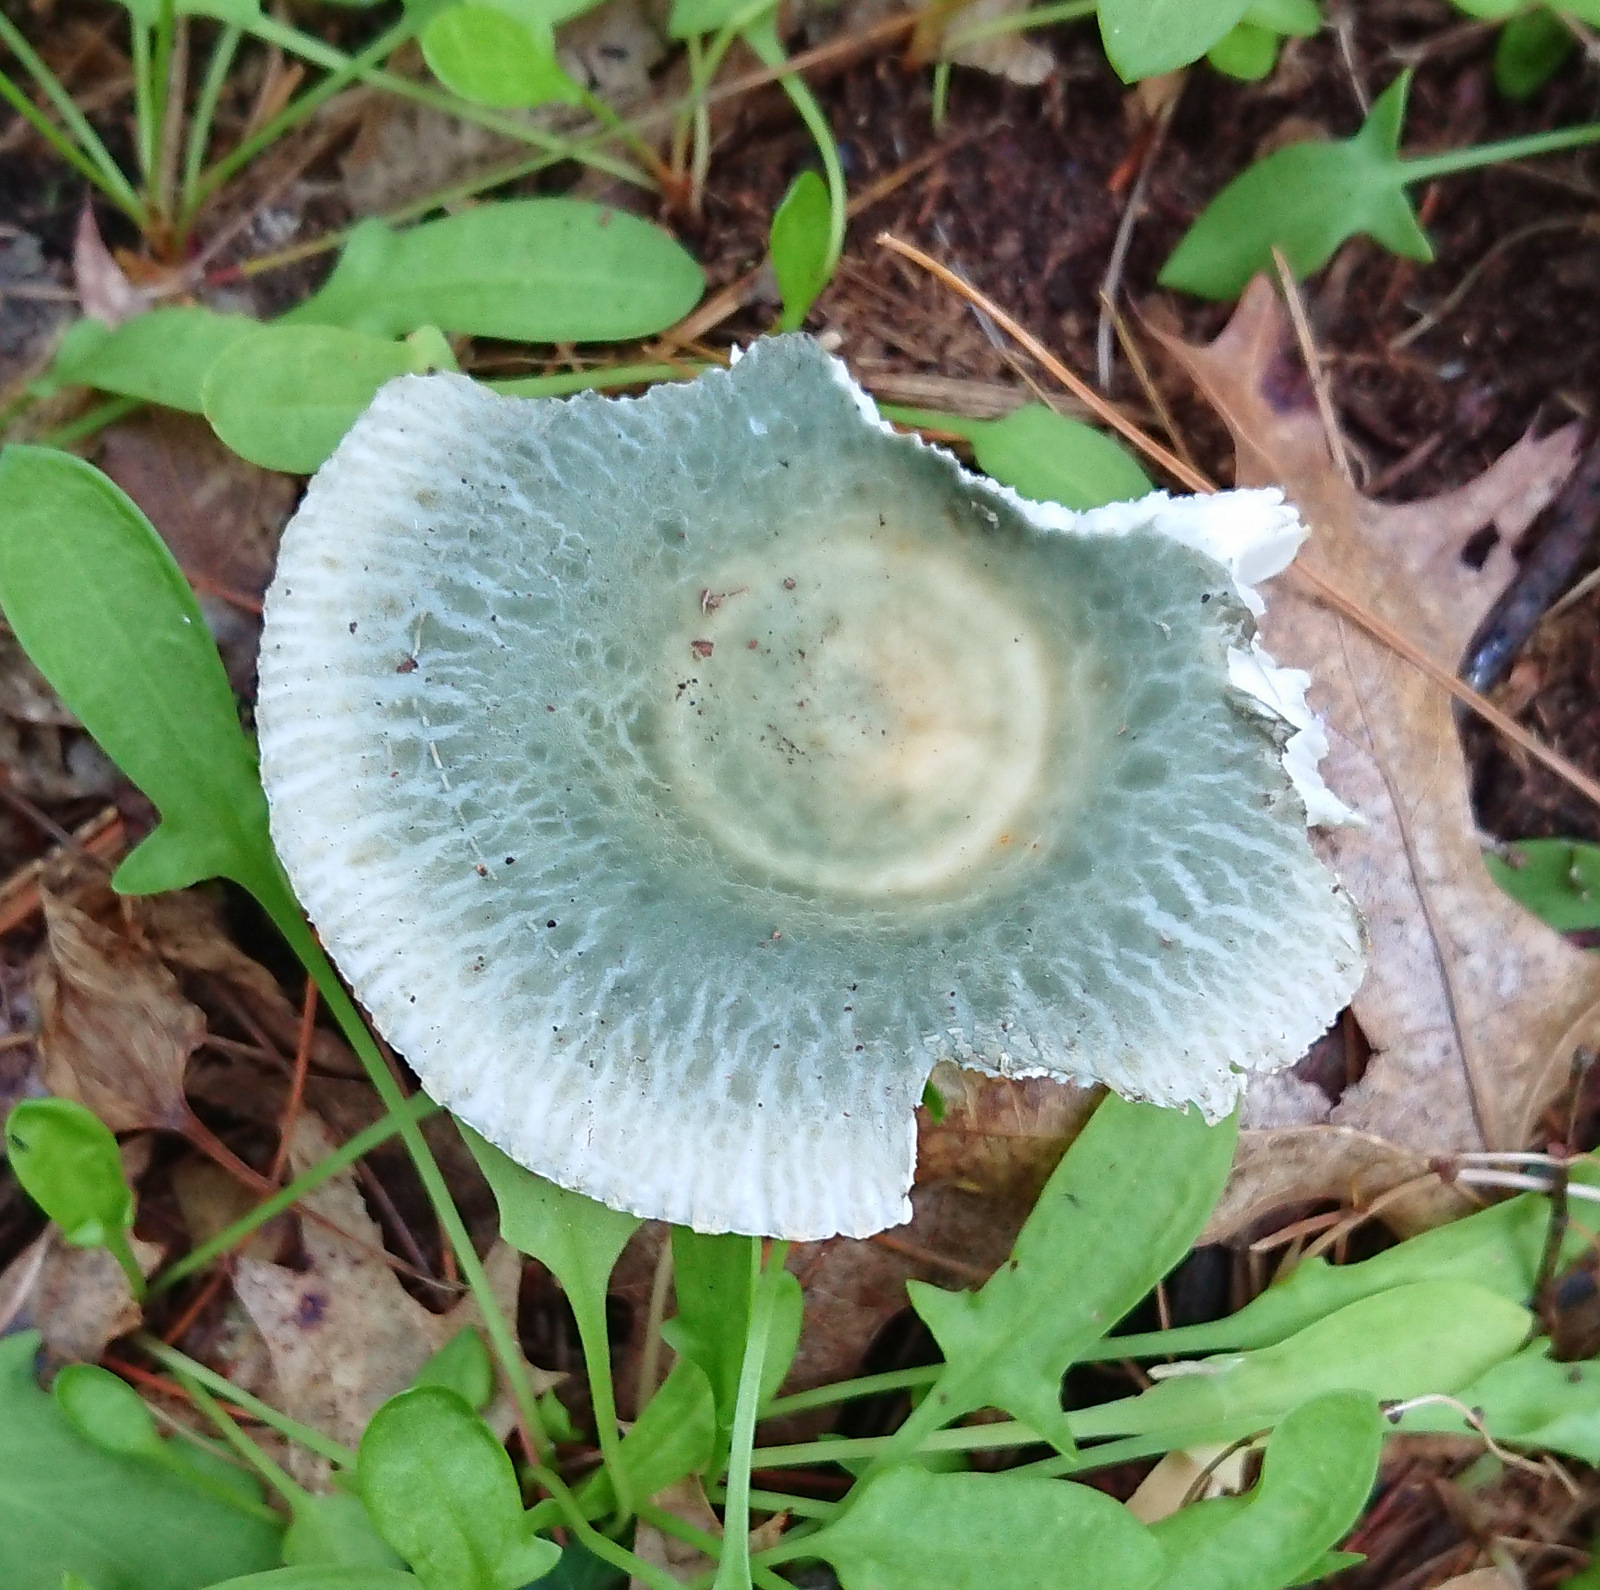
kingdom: Fungi
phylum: Basidiomycota
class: Agaricomycetes
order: Russulales
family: Russulaceae
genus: Russula
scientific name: Russula crustosa
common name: Green quilt russula
